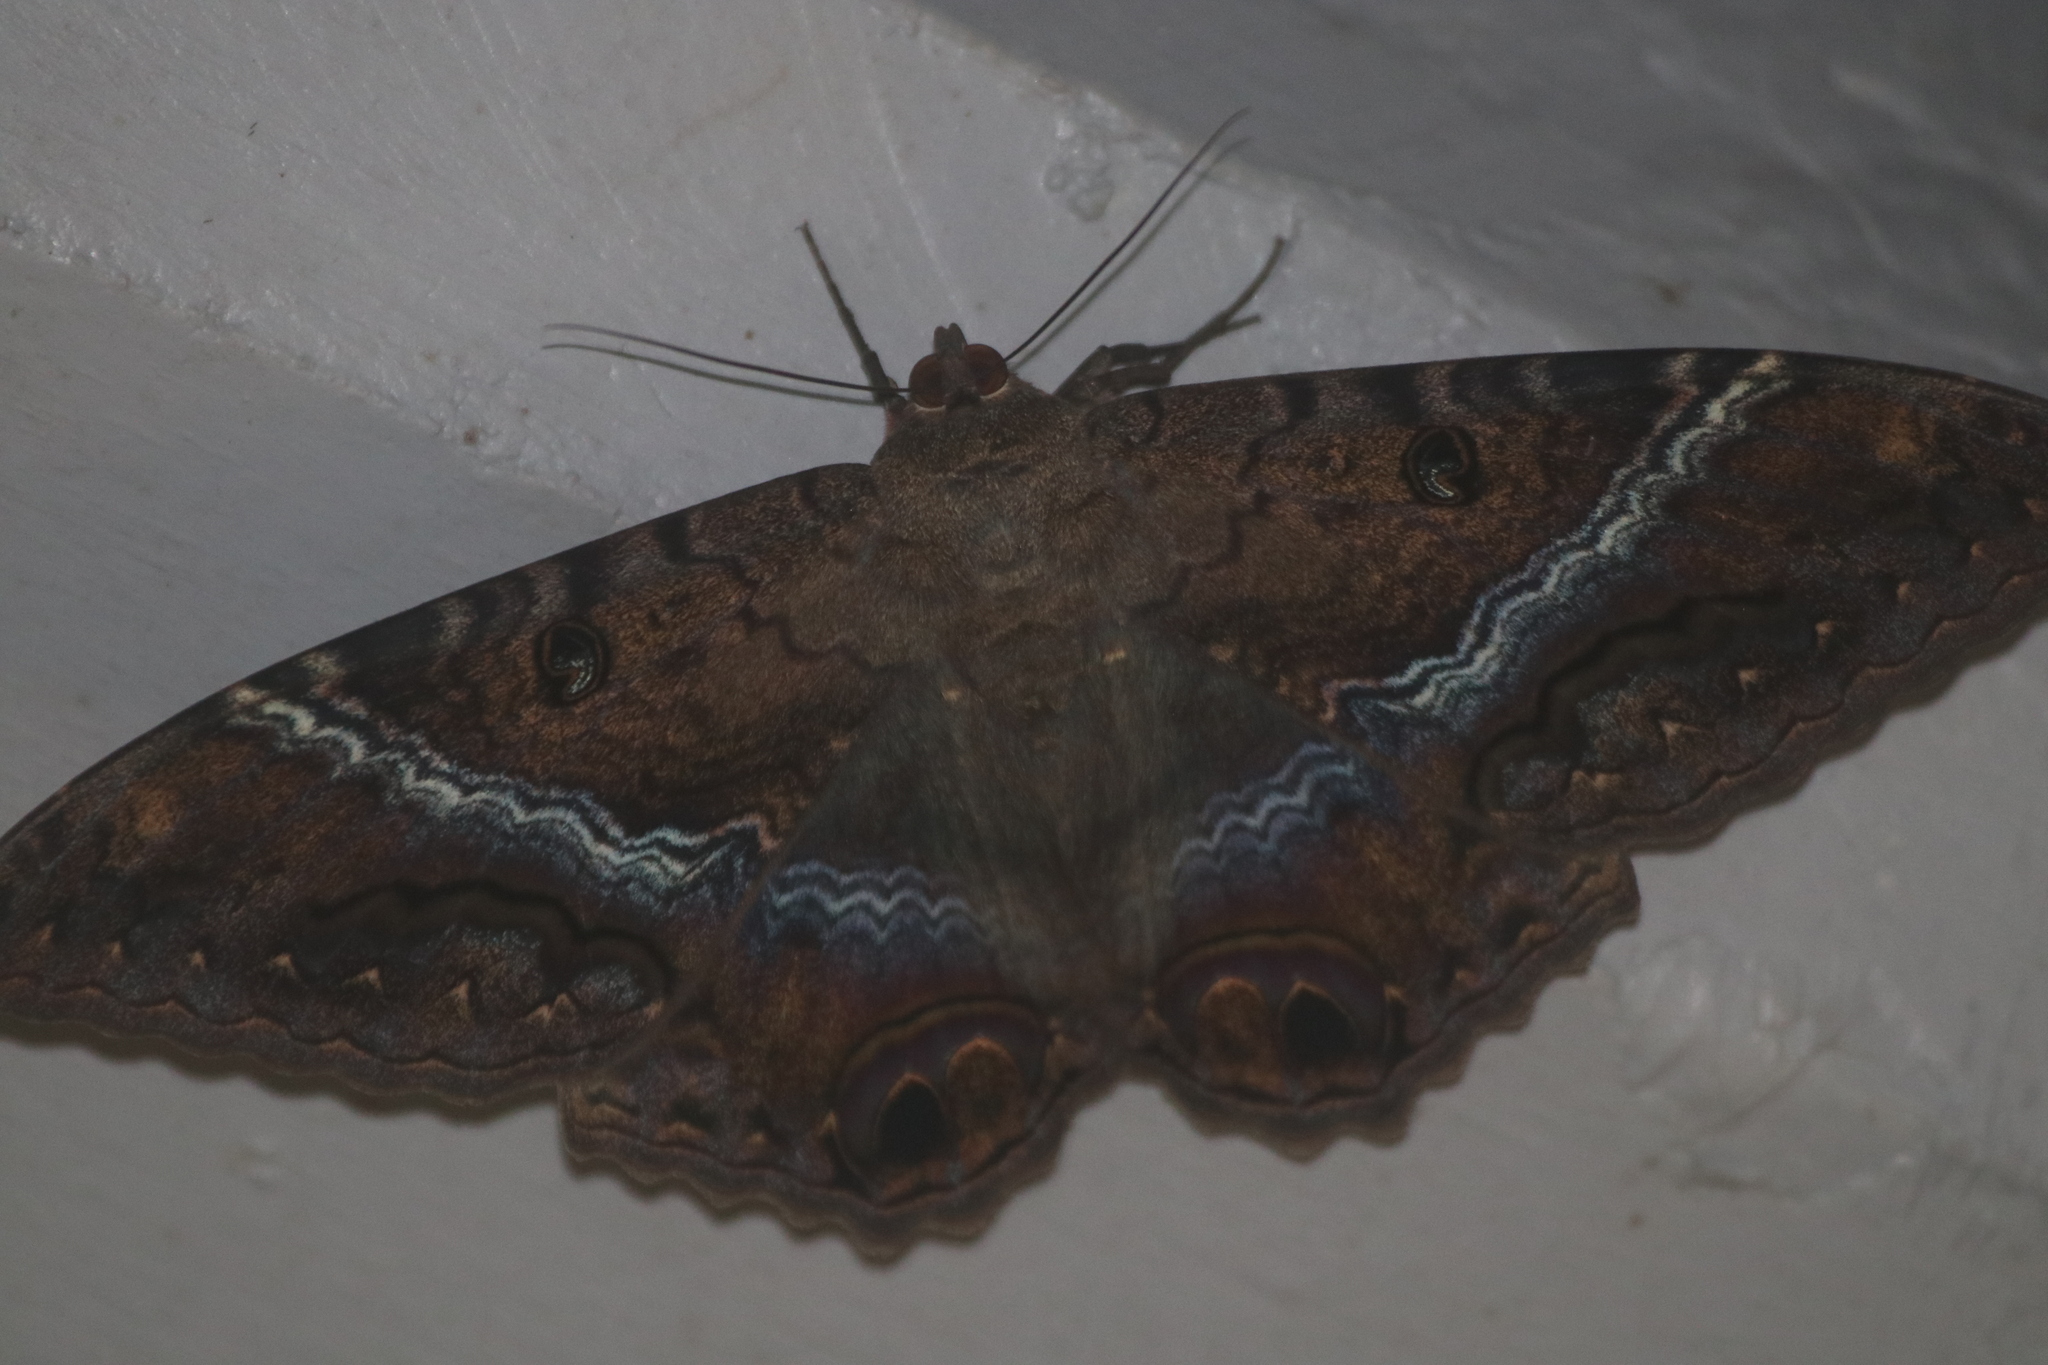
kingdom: Animalia
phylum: Arthropoda
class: Insecta
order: Lepidoptera
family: Erebidae
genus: Ascalapha
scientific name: Ascalapha odorata
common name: Black witch
